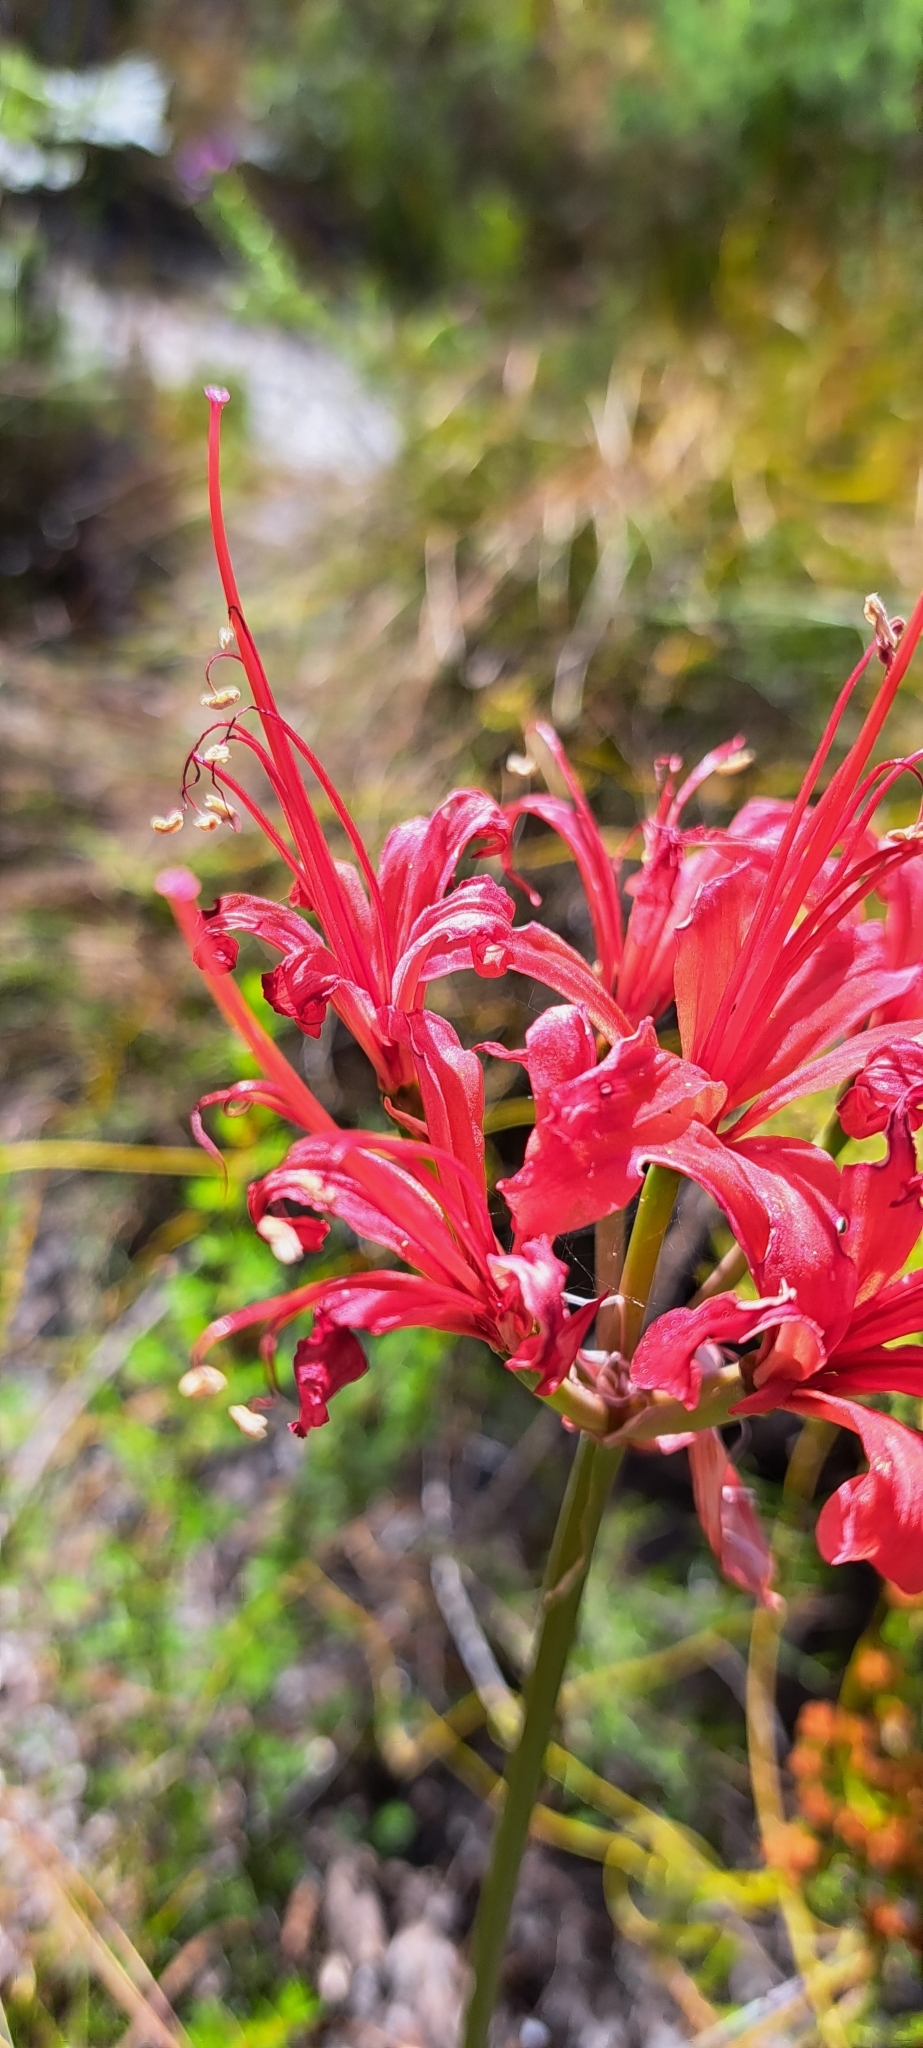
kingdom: Plantae
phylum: Tracheophyta
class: Liliopsida
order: Asparagales
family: Amaryllidaceae
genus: Nerine
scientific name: Nerine sarniensis
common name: Guernsey-lily
